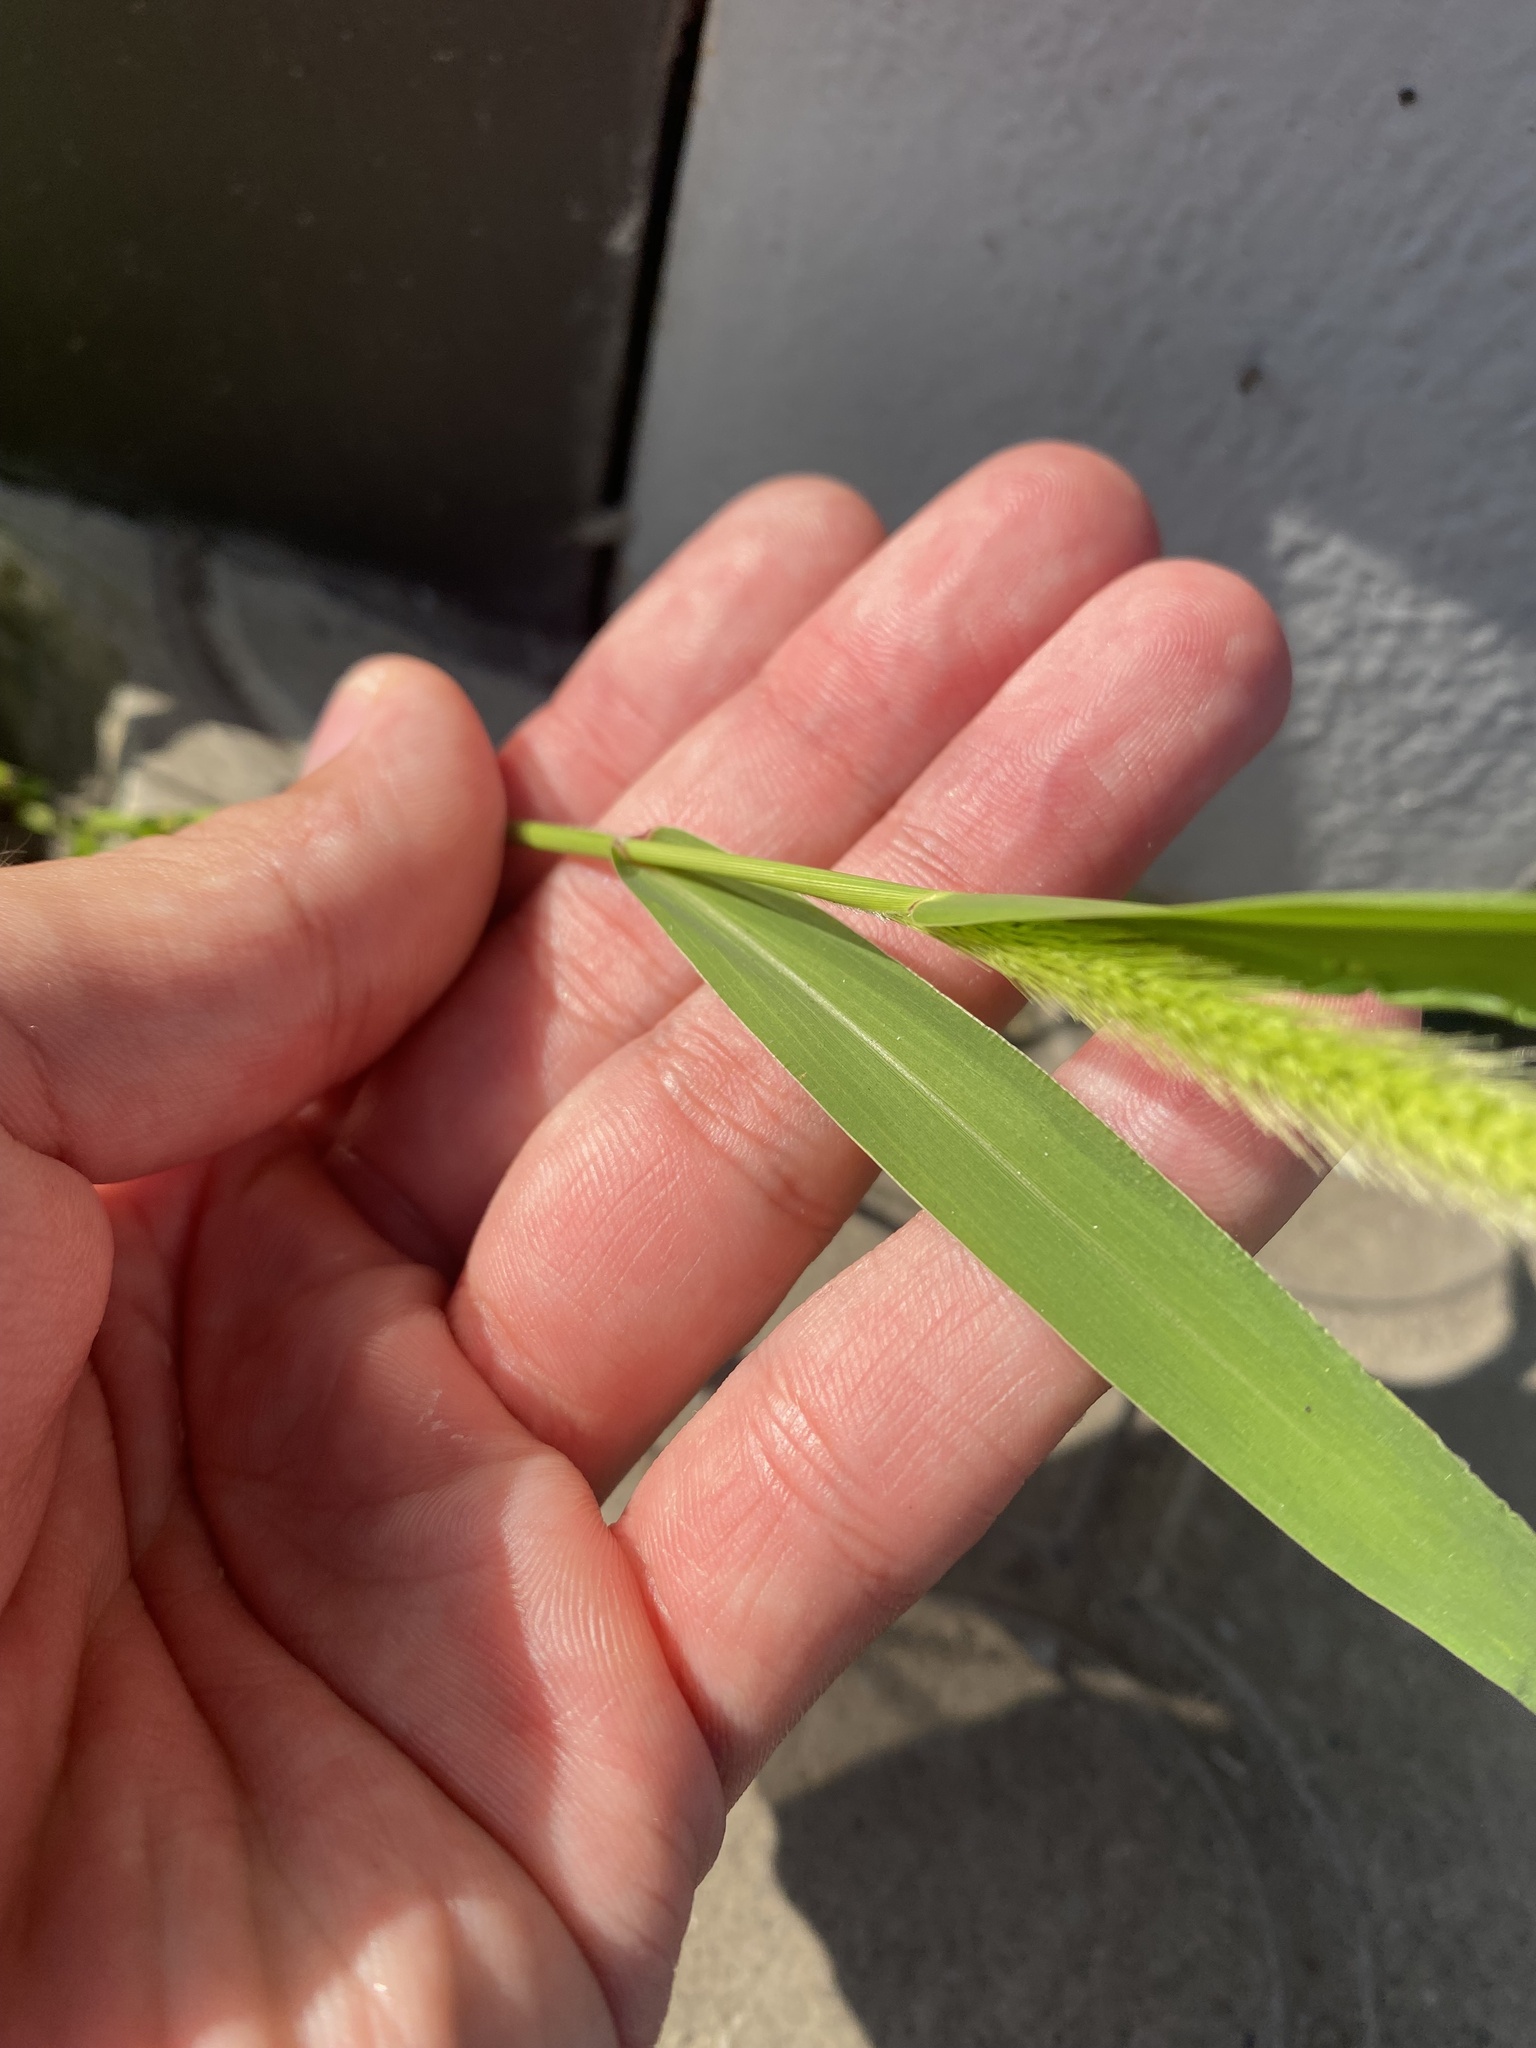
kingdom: Plantae
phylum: Tracheophyta
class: Liliopsida
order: Poales
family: Poaceae
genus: Setaria
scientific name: Setaria viridis
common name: Green bristlegrass
